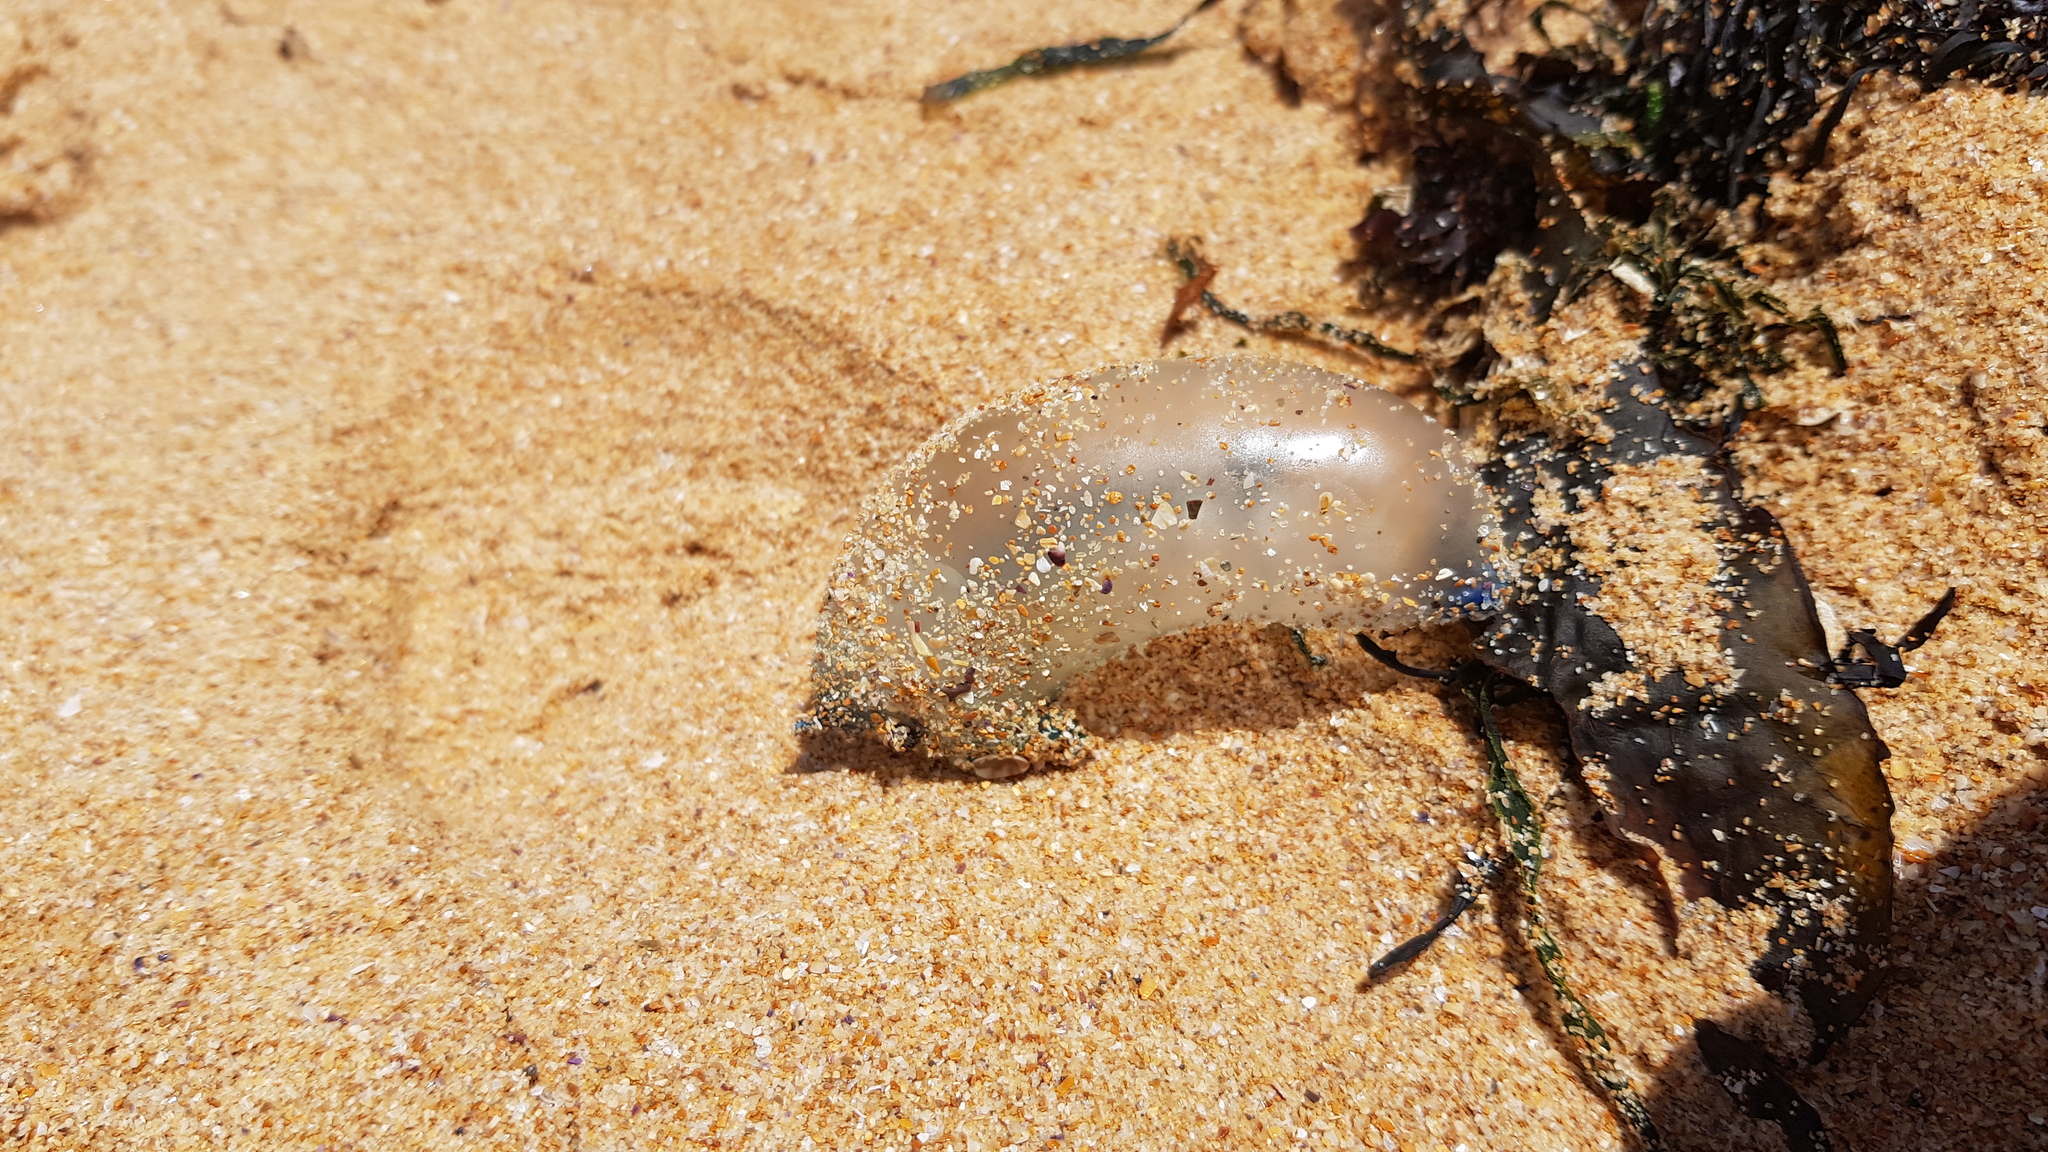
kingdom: Animalia
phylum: Cnidaria
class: Hydrozoa
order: Siphonophorae
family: Physaliidae
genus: Physalia
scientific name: Physalia physalis
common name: Portuguese man-of-war
